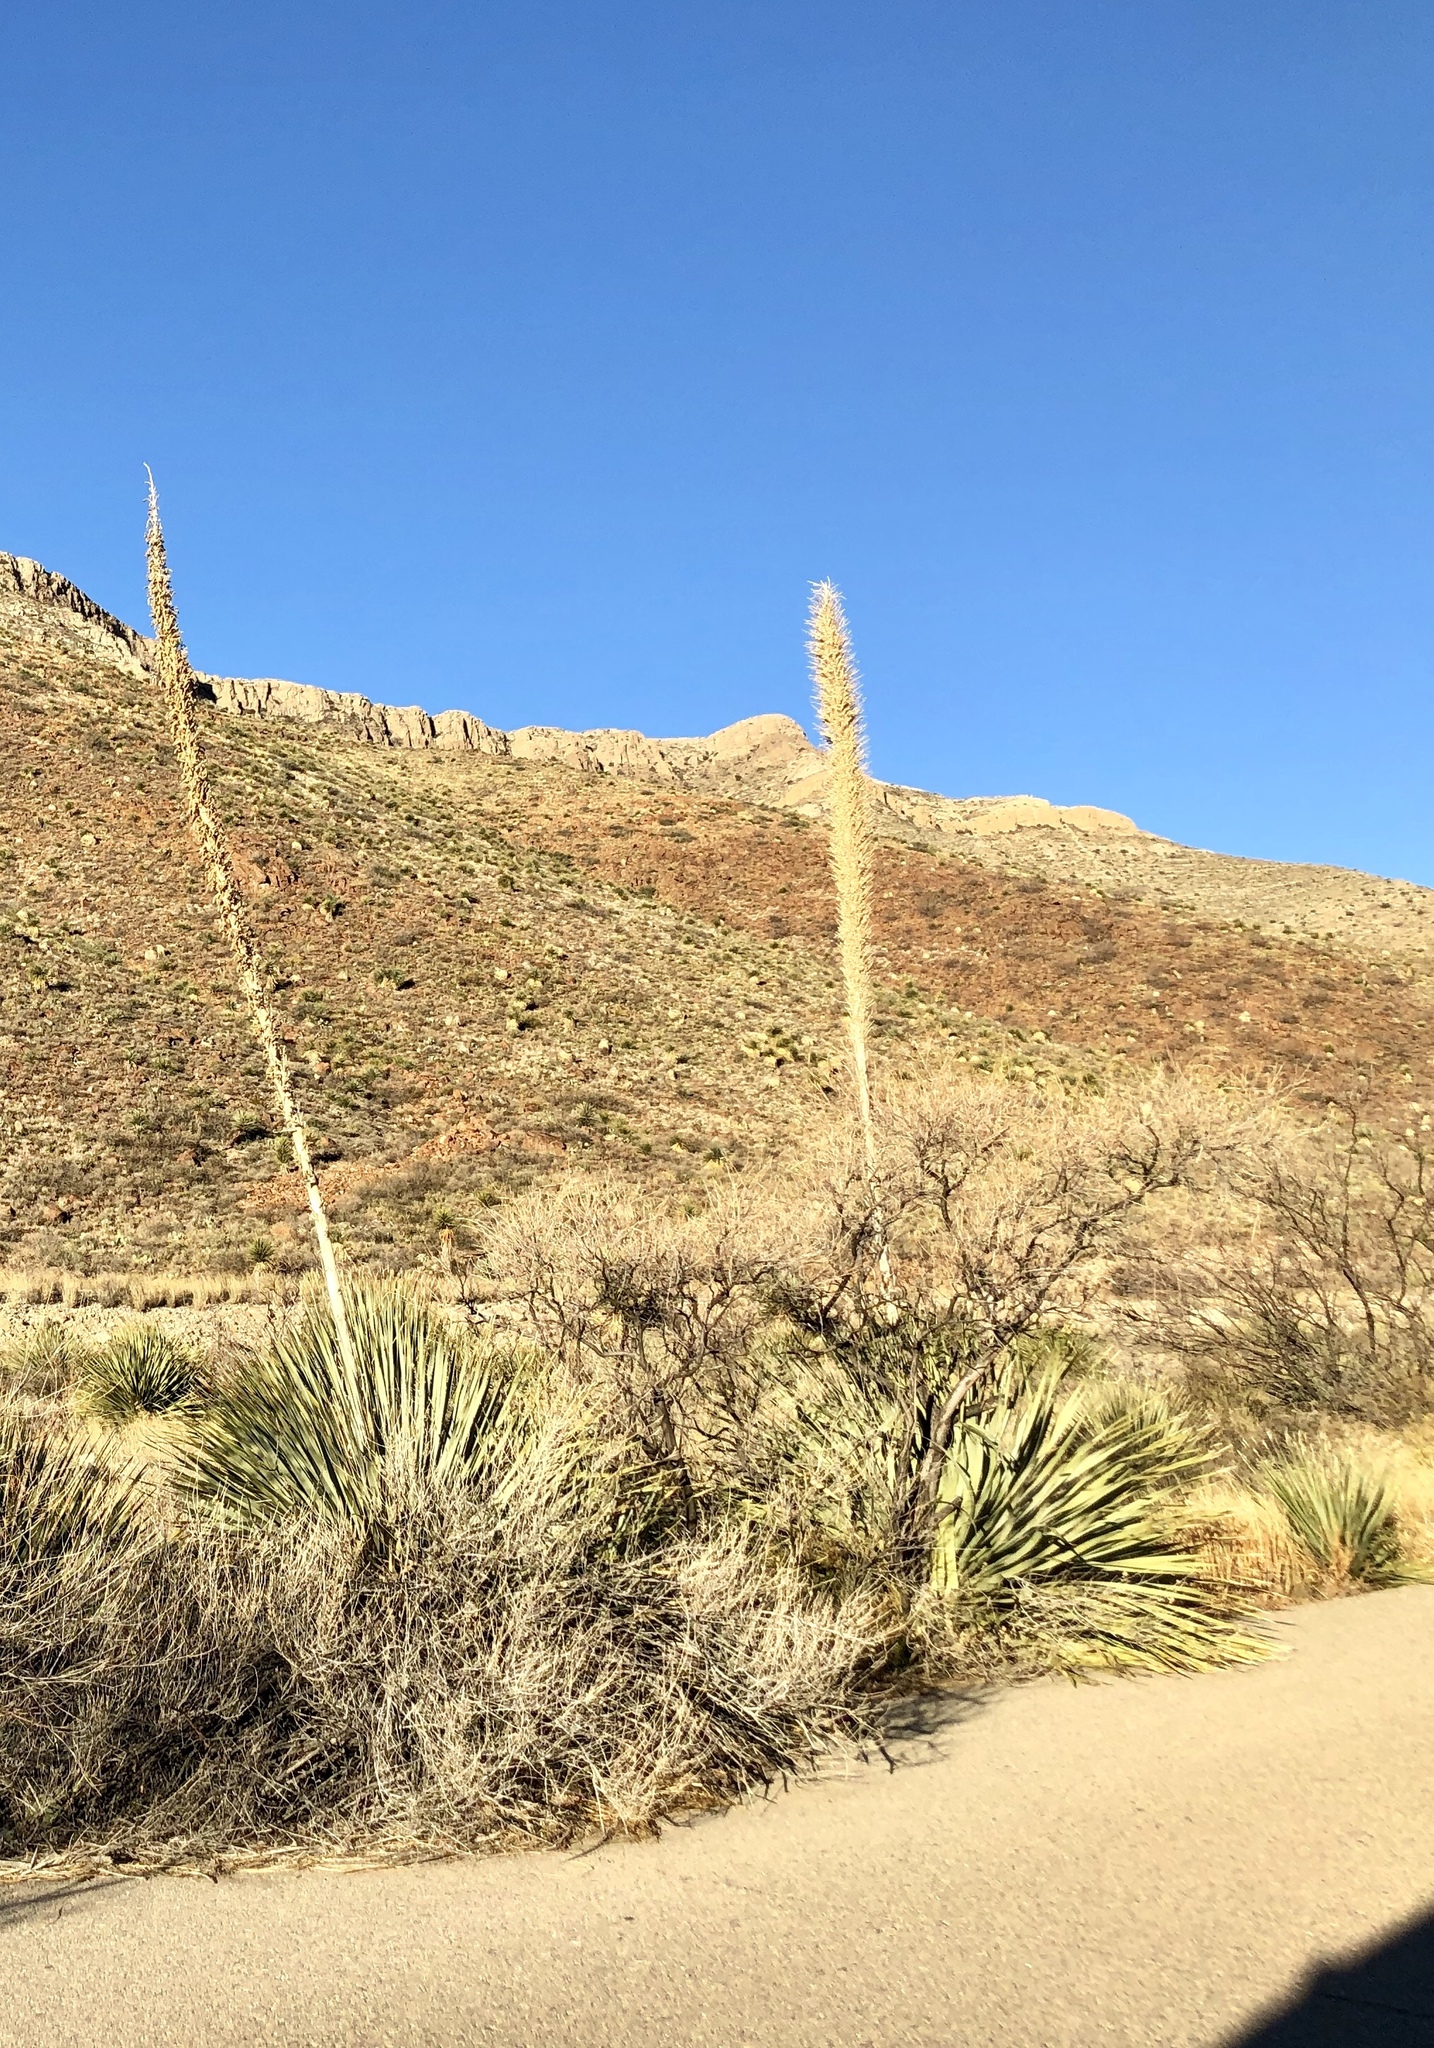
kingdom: Plantae
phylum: Tracheophyta
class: Liliopsida
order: Asparagales
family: Asparagaceae
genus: Dasylirion
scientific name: Dasylirion wheeleri
